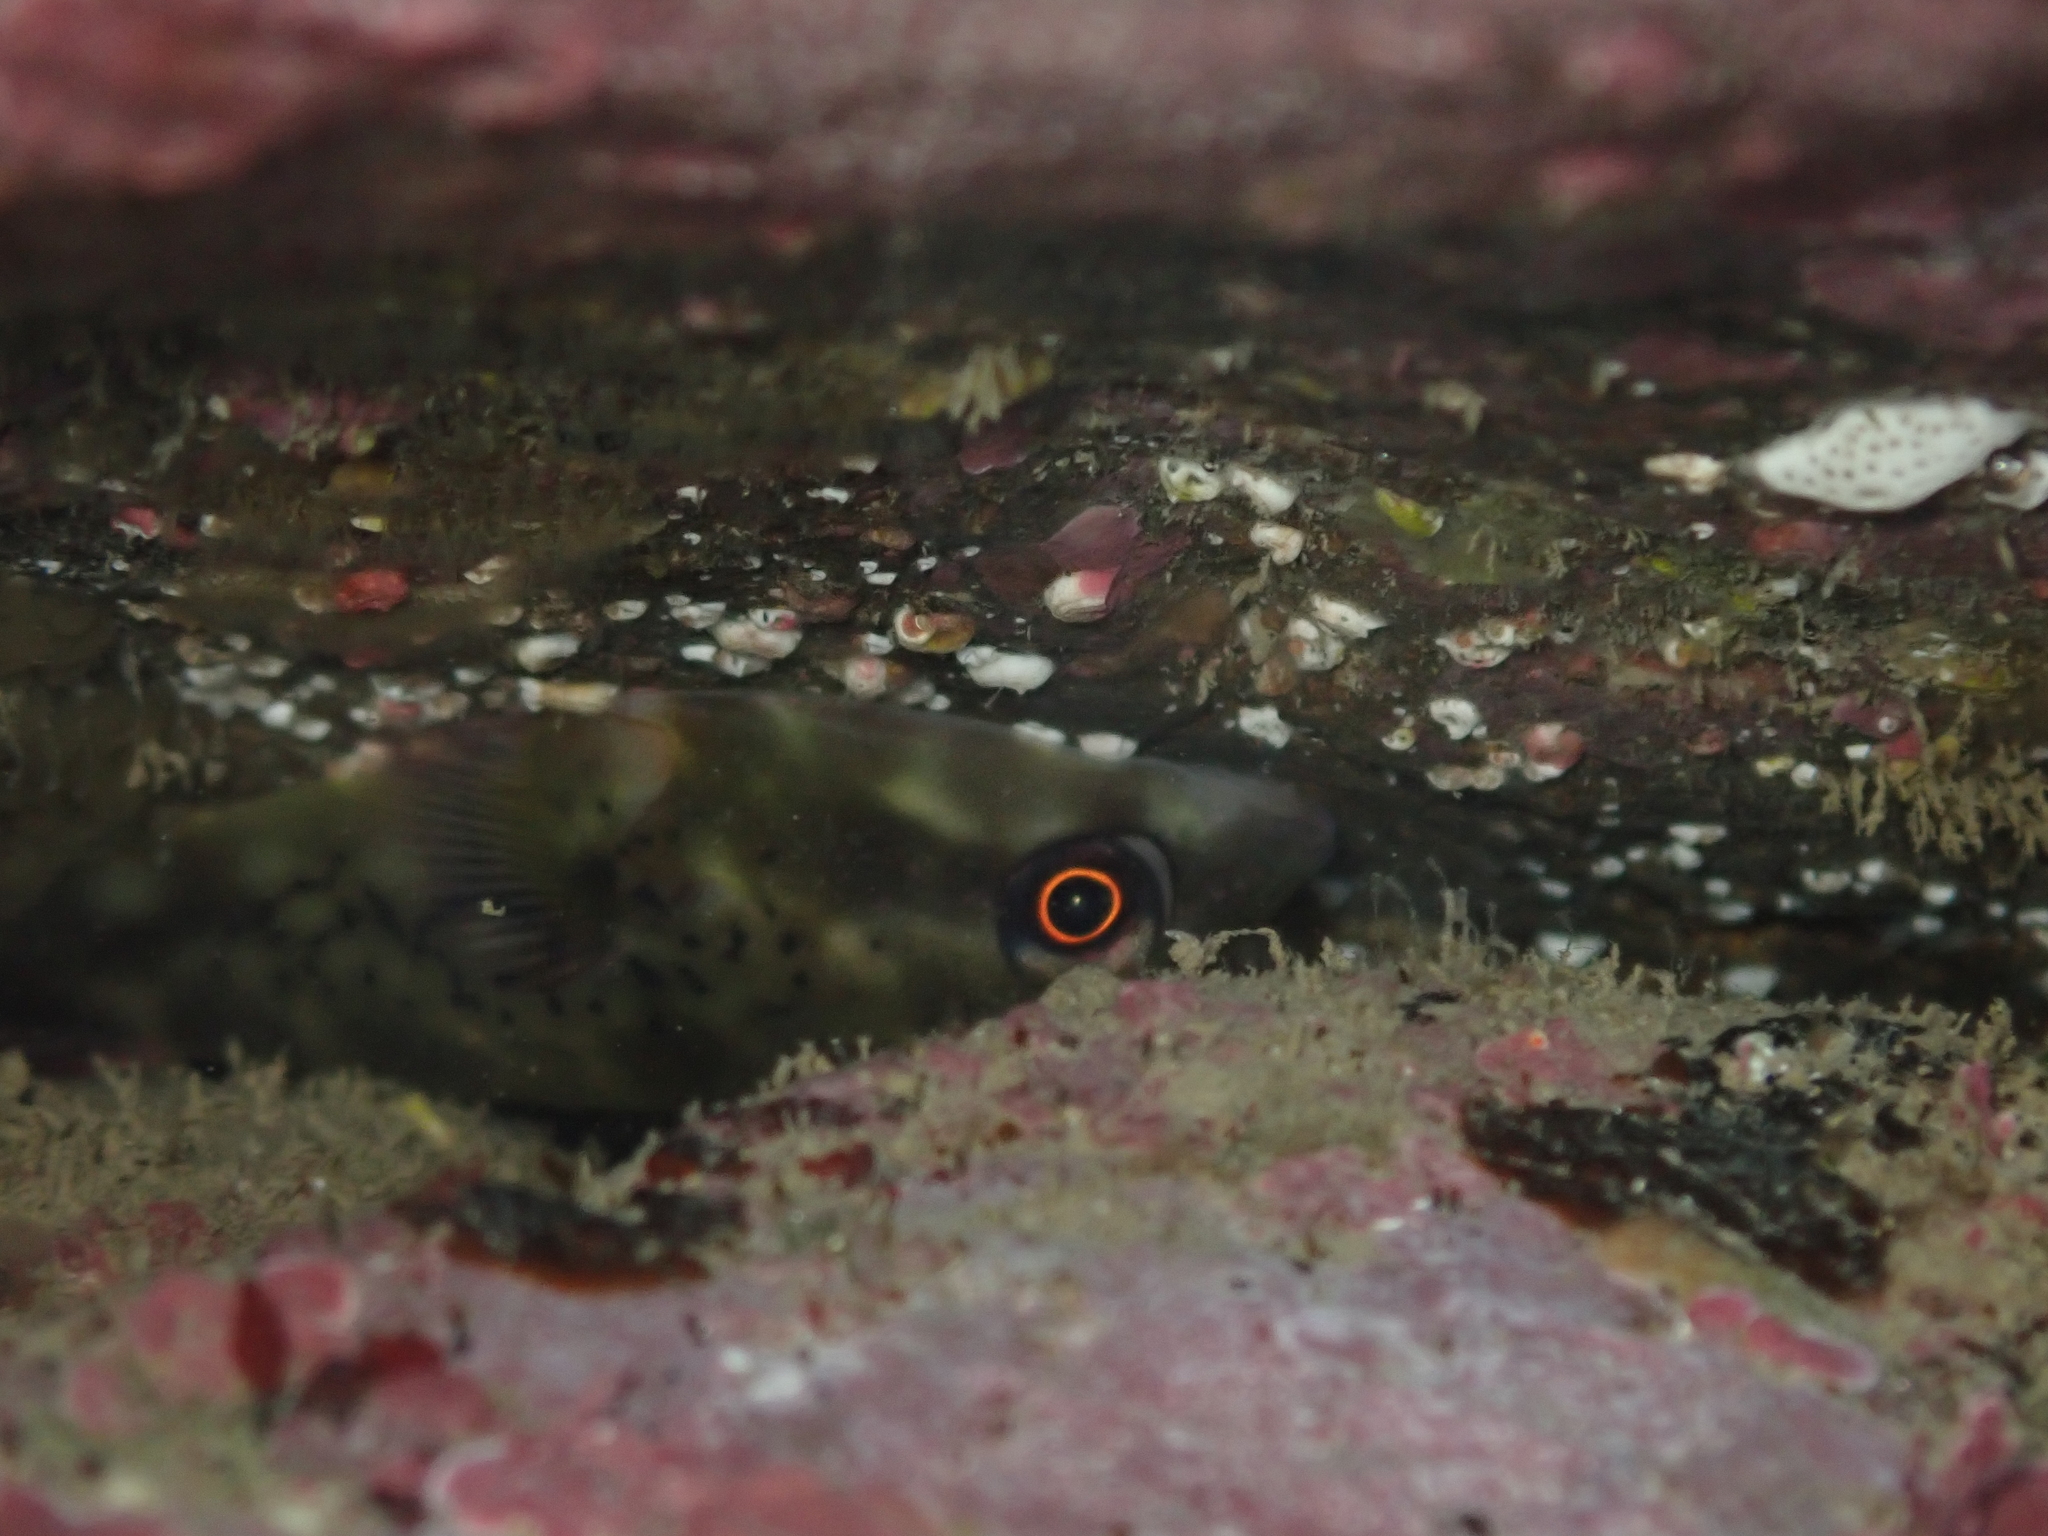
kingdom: Animalia
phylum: Chordata
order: Gobiesociformes
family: Gobiesocidae
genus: Diplocrepis
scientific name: Diplocrepis puniceus
